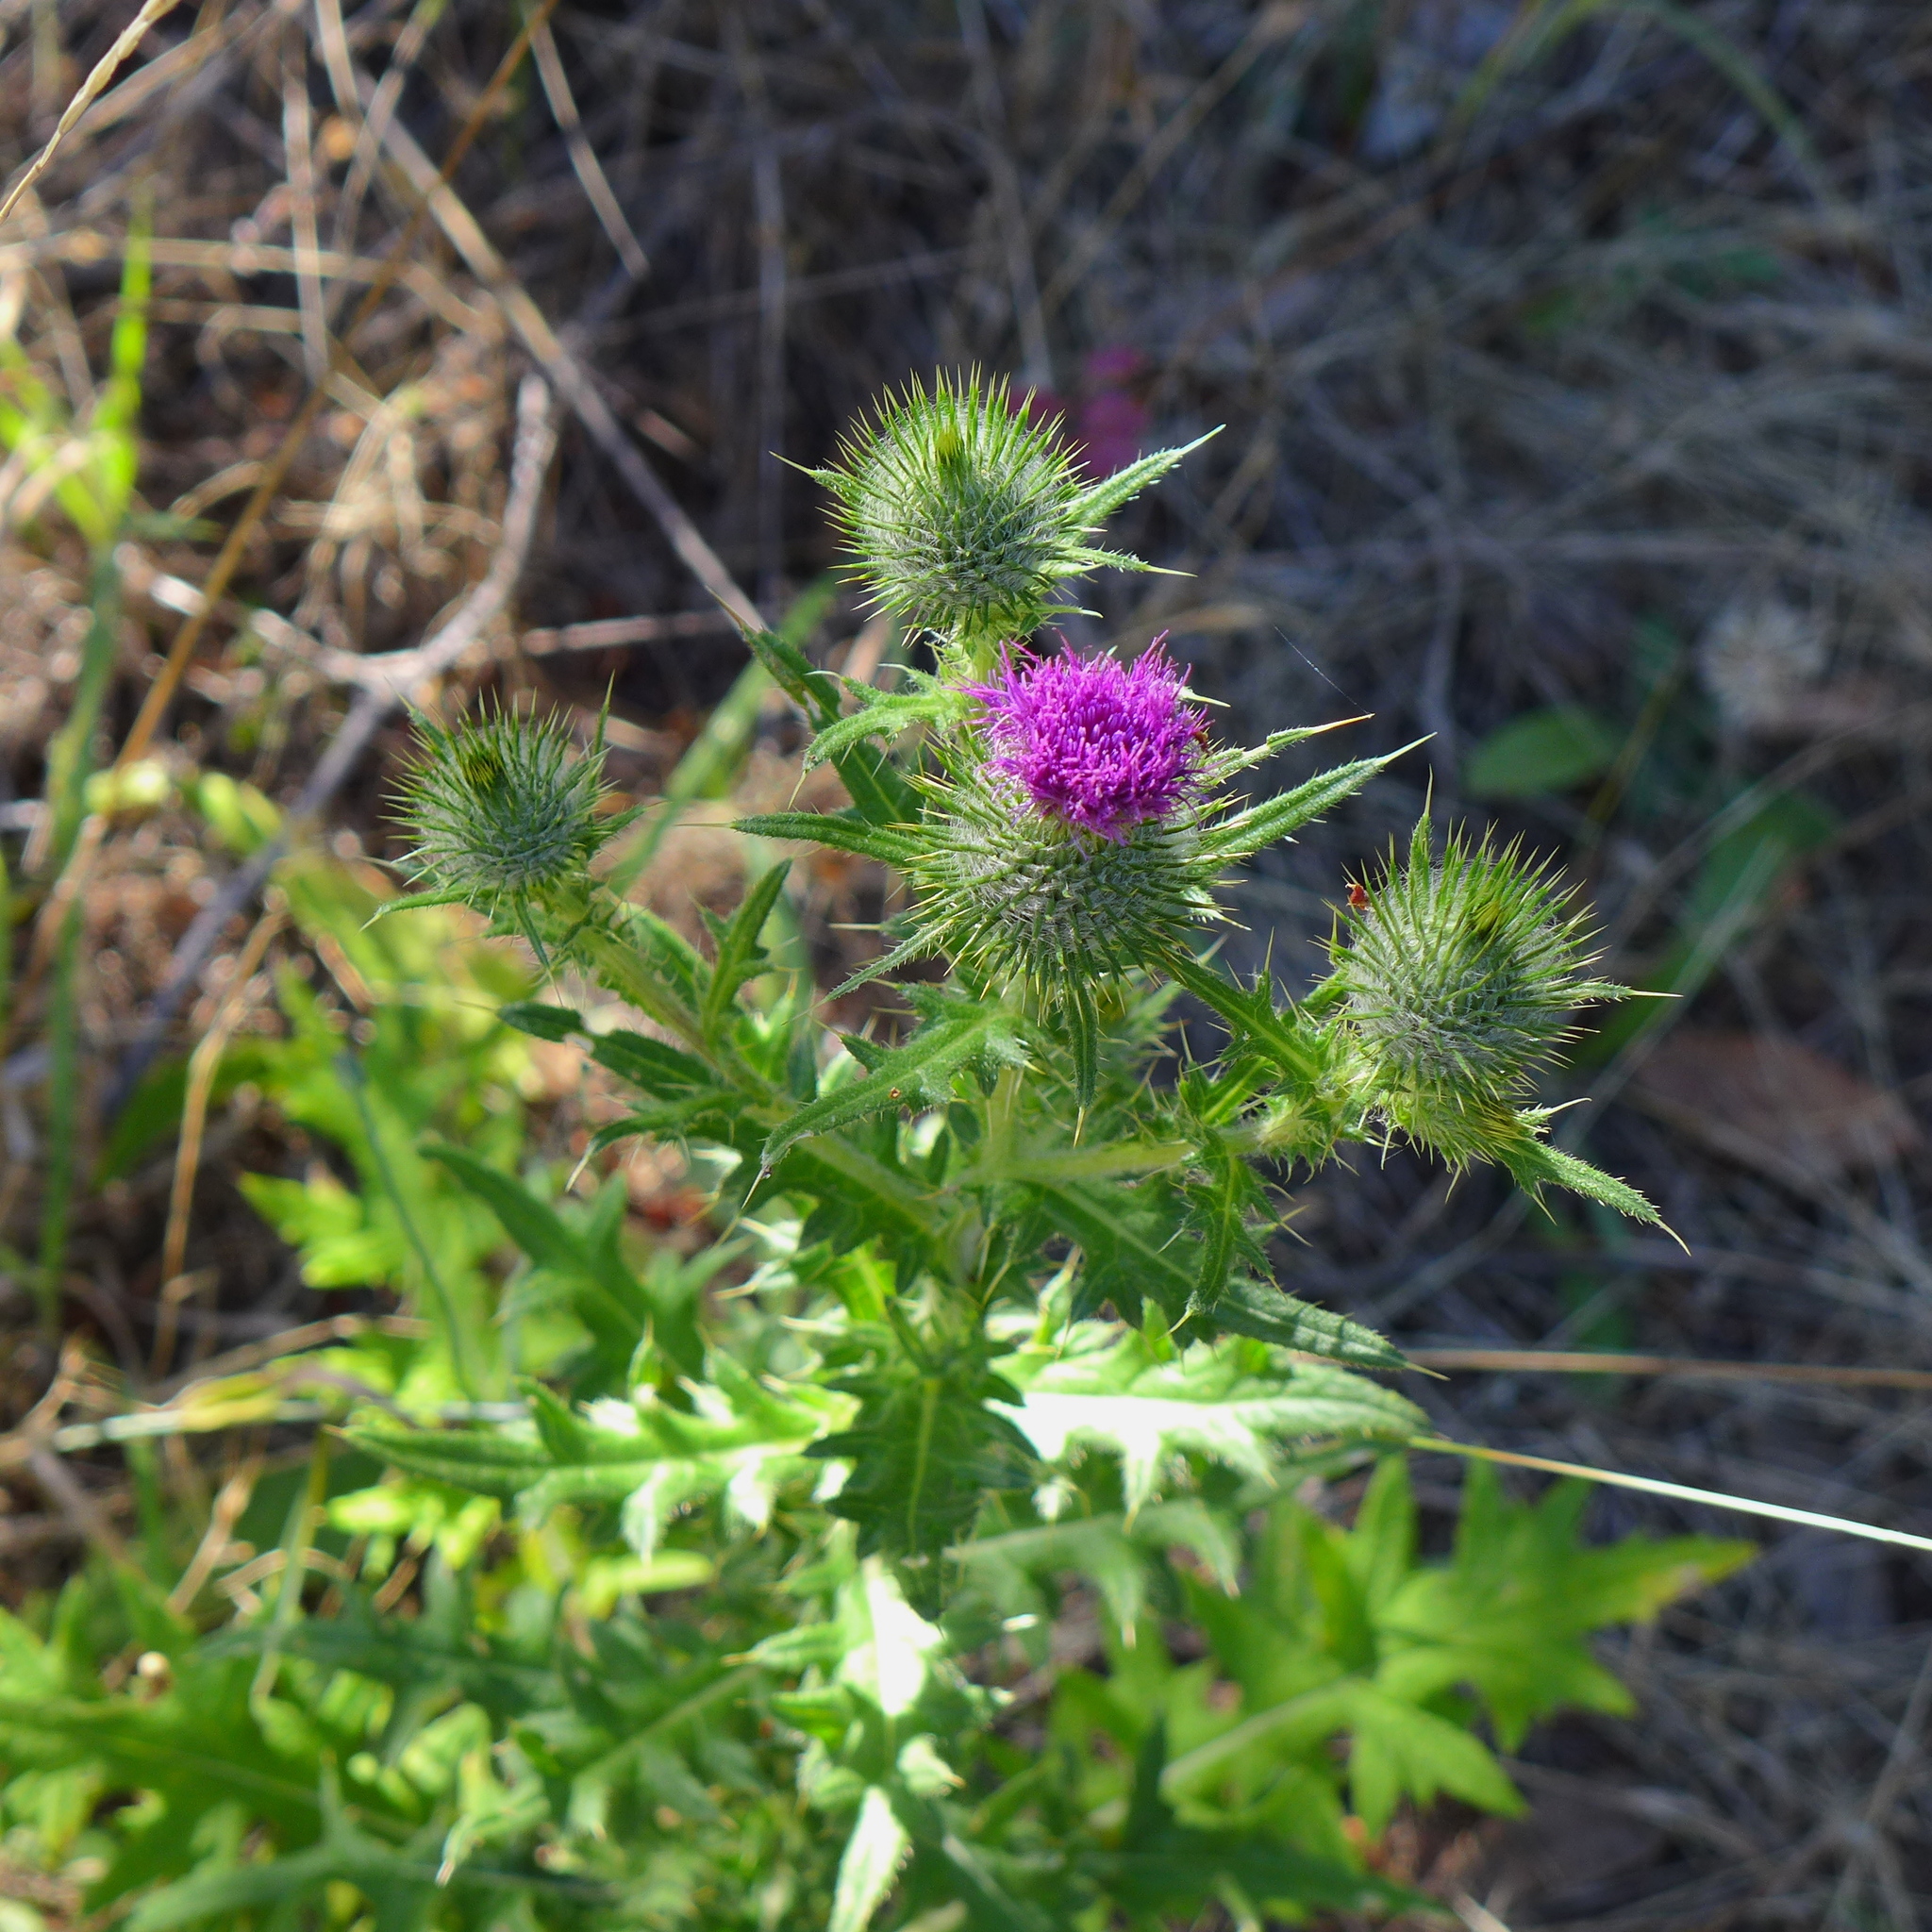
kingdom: Plantae
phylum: Tracheophyta
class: Magnoliopsida
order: Asterales
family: Asteraceae
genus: Cirsium
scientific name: Cirsium vulgare
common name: Bull thistle
